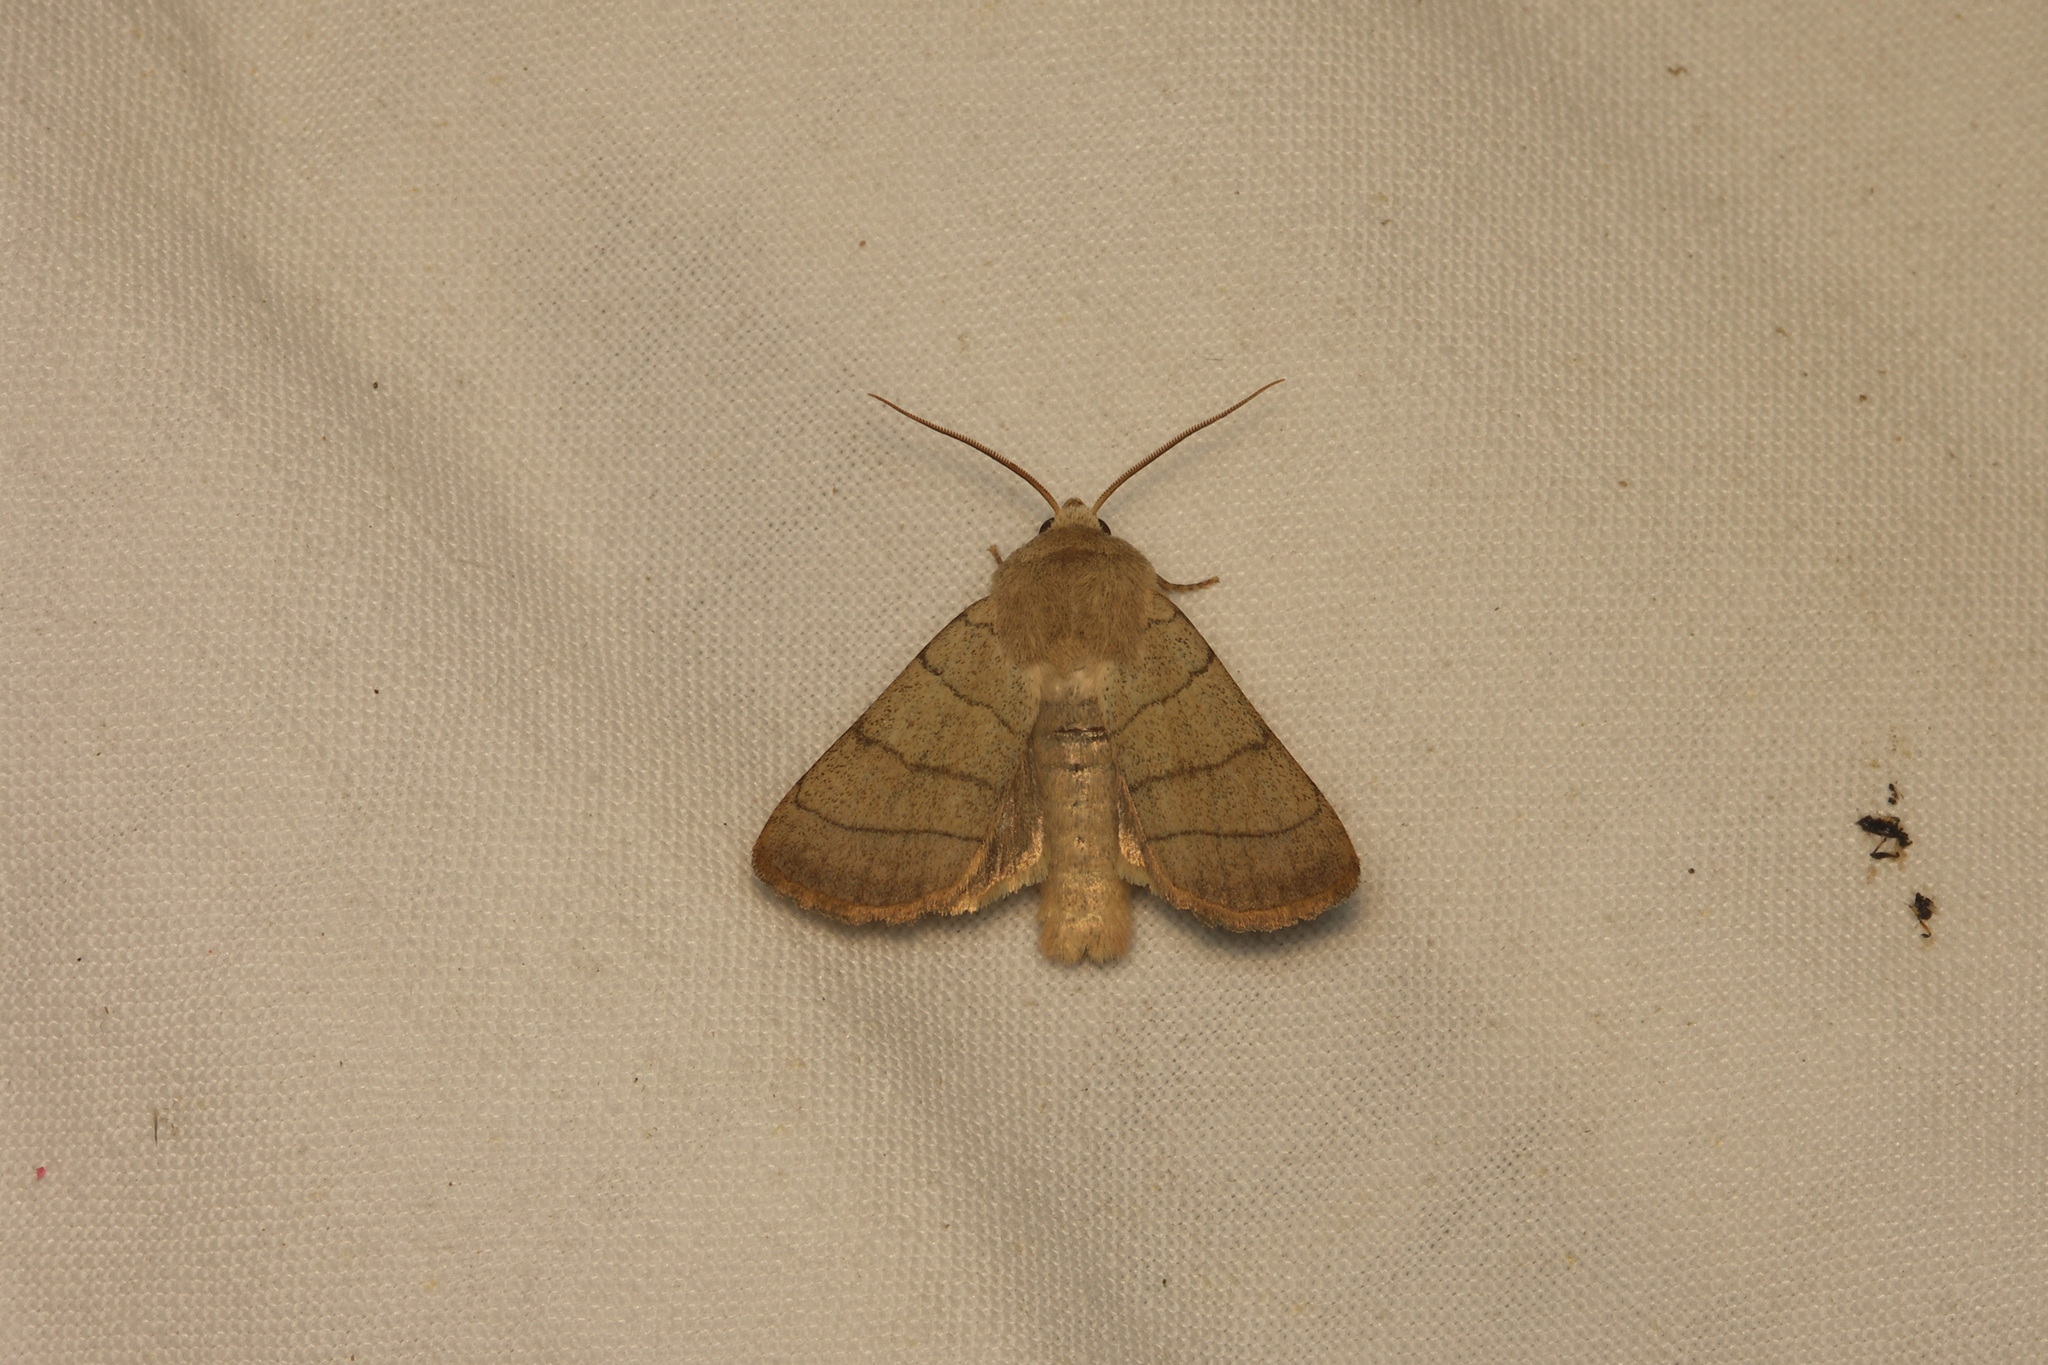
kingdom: Animalia
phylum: Arthropoda
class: Insecta
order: Lepidoptera
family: Noctuidae
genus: Charanyca
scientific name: Charanyca trigrammica
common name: Treble lines
